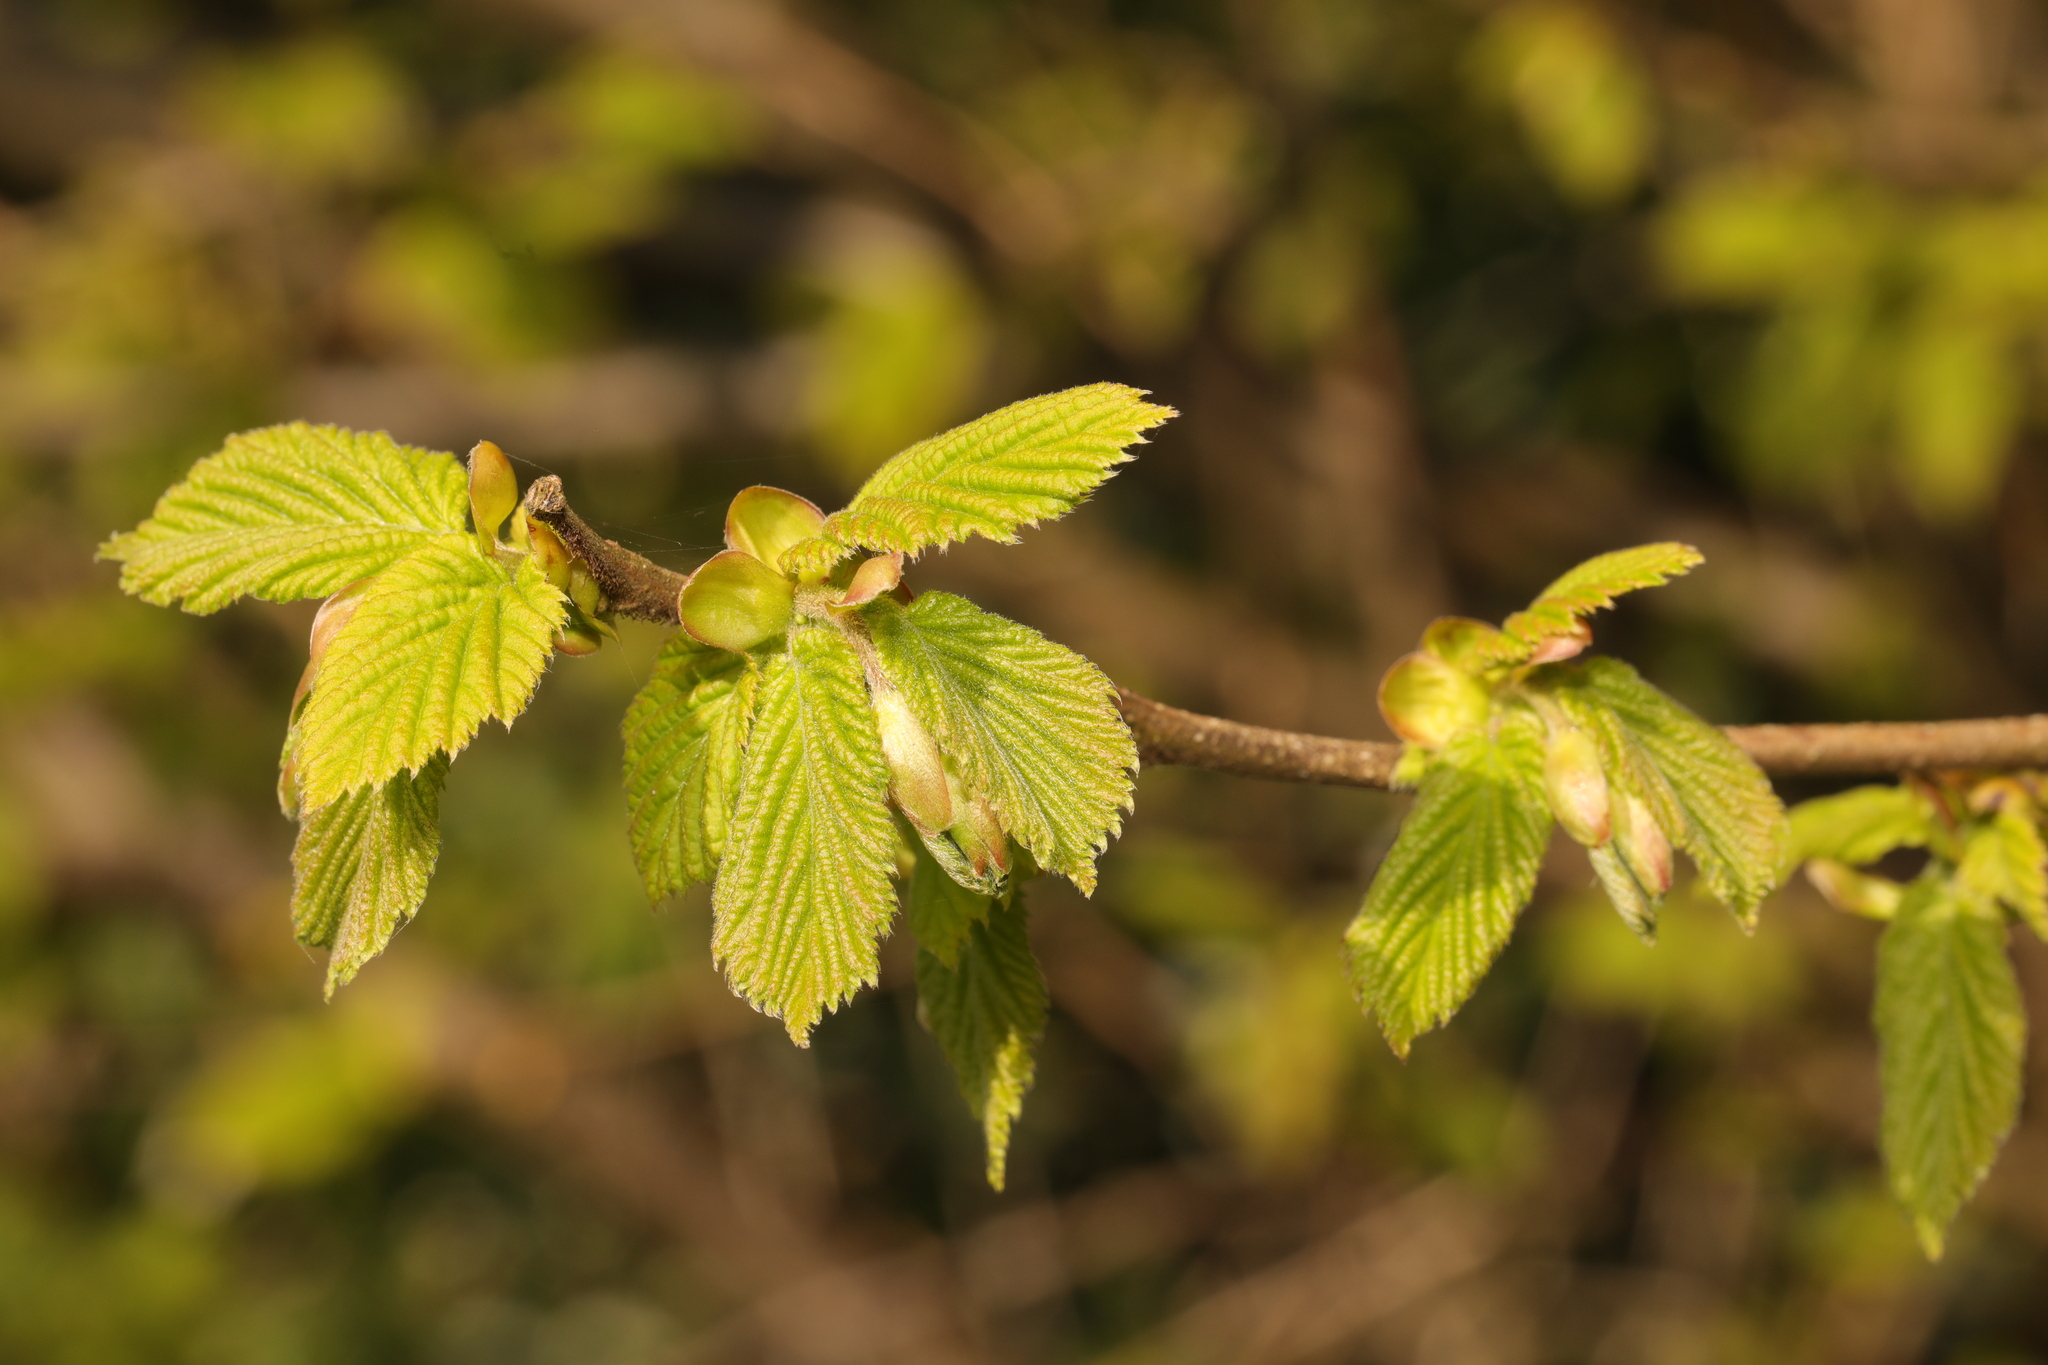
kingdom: Plantae
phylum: Tracheophyta
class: Magnoliopsida
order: Fagales
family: Betulaceae
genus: Corylus
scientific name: Corylus avellana
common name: European hazel
